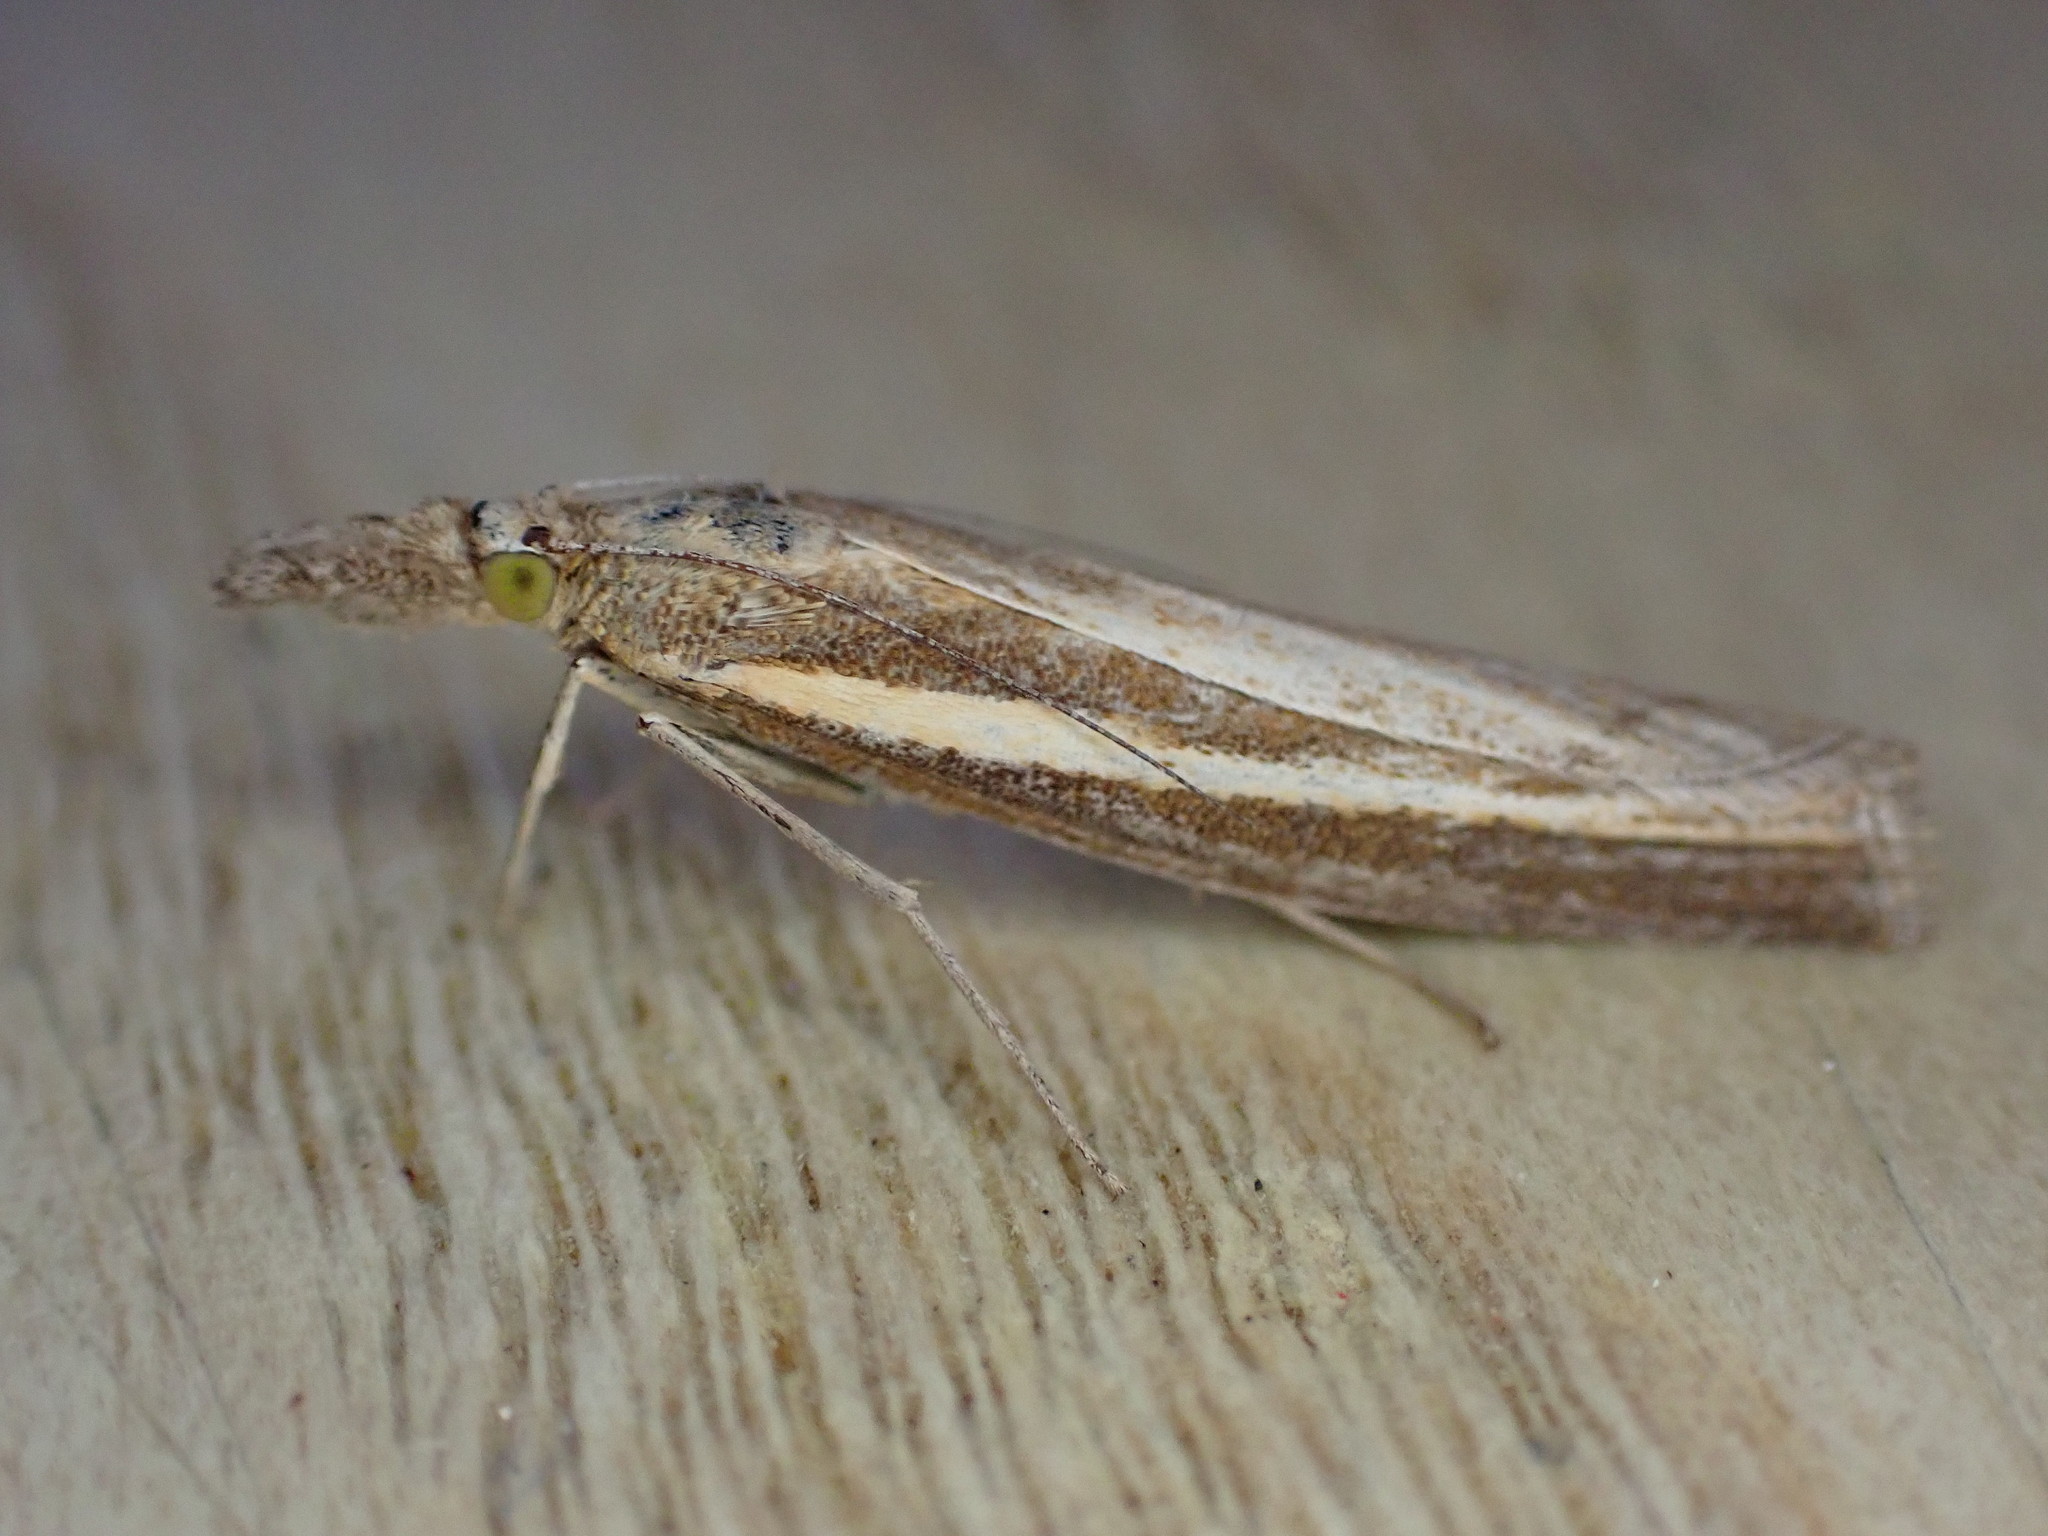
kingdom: Animalia
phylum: Arthropoda
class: Insecta
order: Lepidoptera
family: Crambidae
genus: Agriphila
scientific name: Agriphila tristellus
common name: Common grass-veneer
